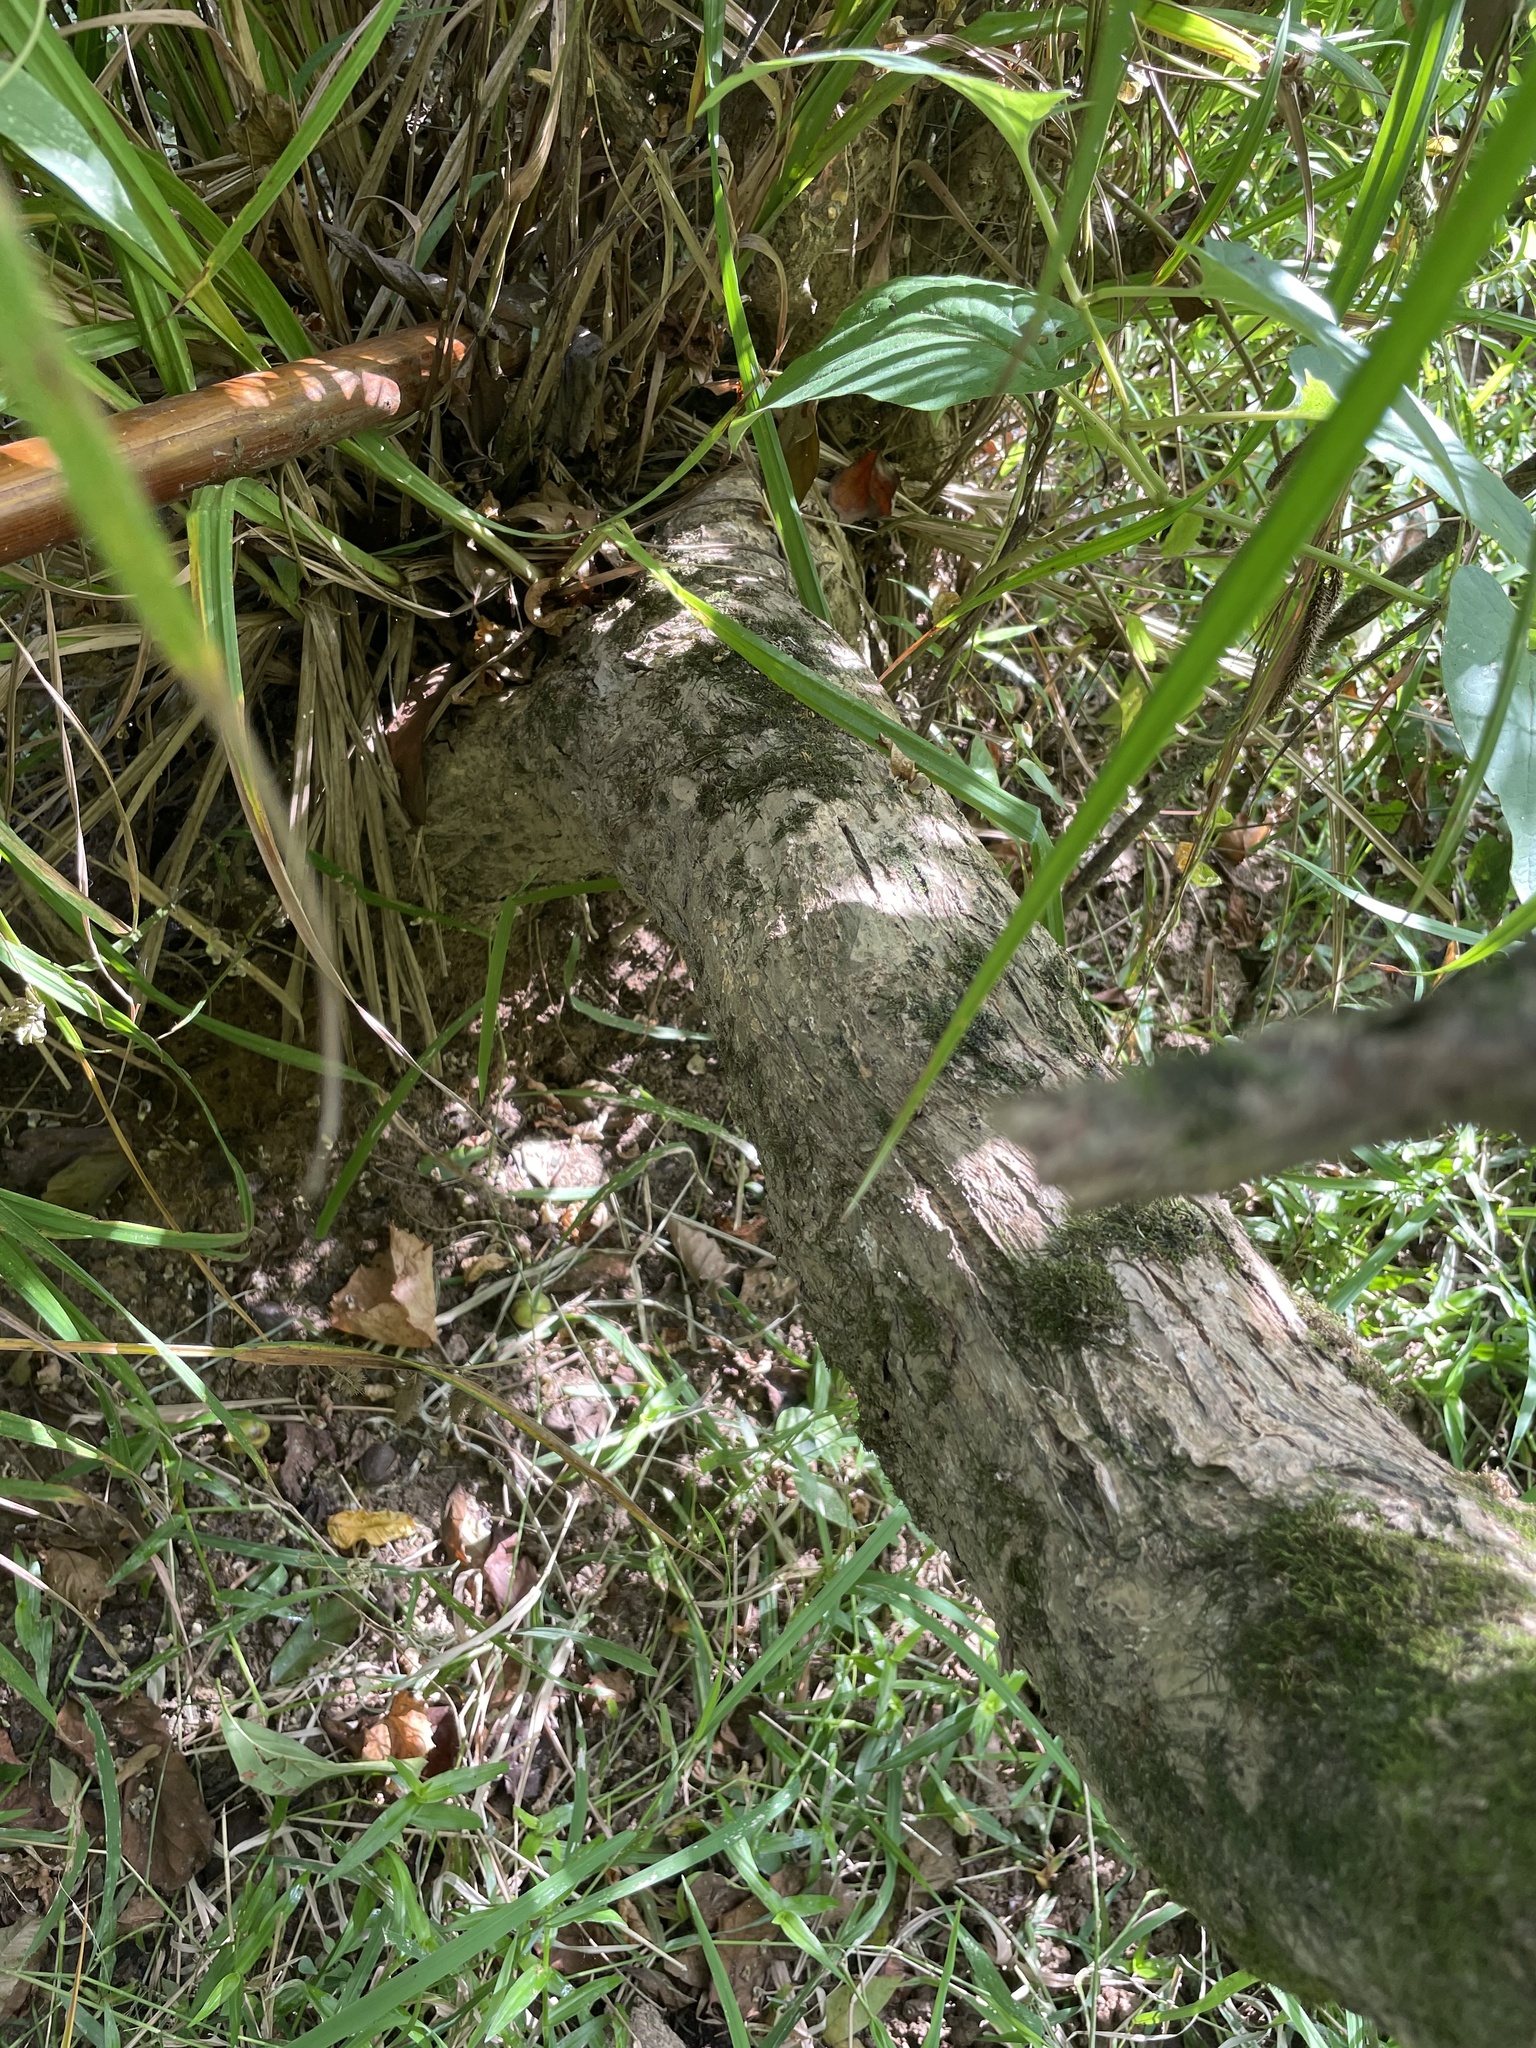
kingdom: Plantae
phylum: Tracheophyta
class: Magnoliopsida
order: Gentianales
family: Rubiaceae
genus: Cephalanthus
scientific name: Cephalanthus occidentalis
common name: Button-willow
